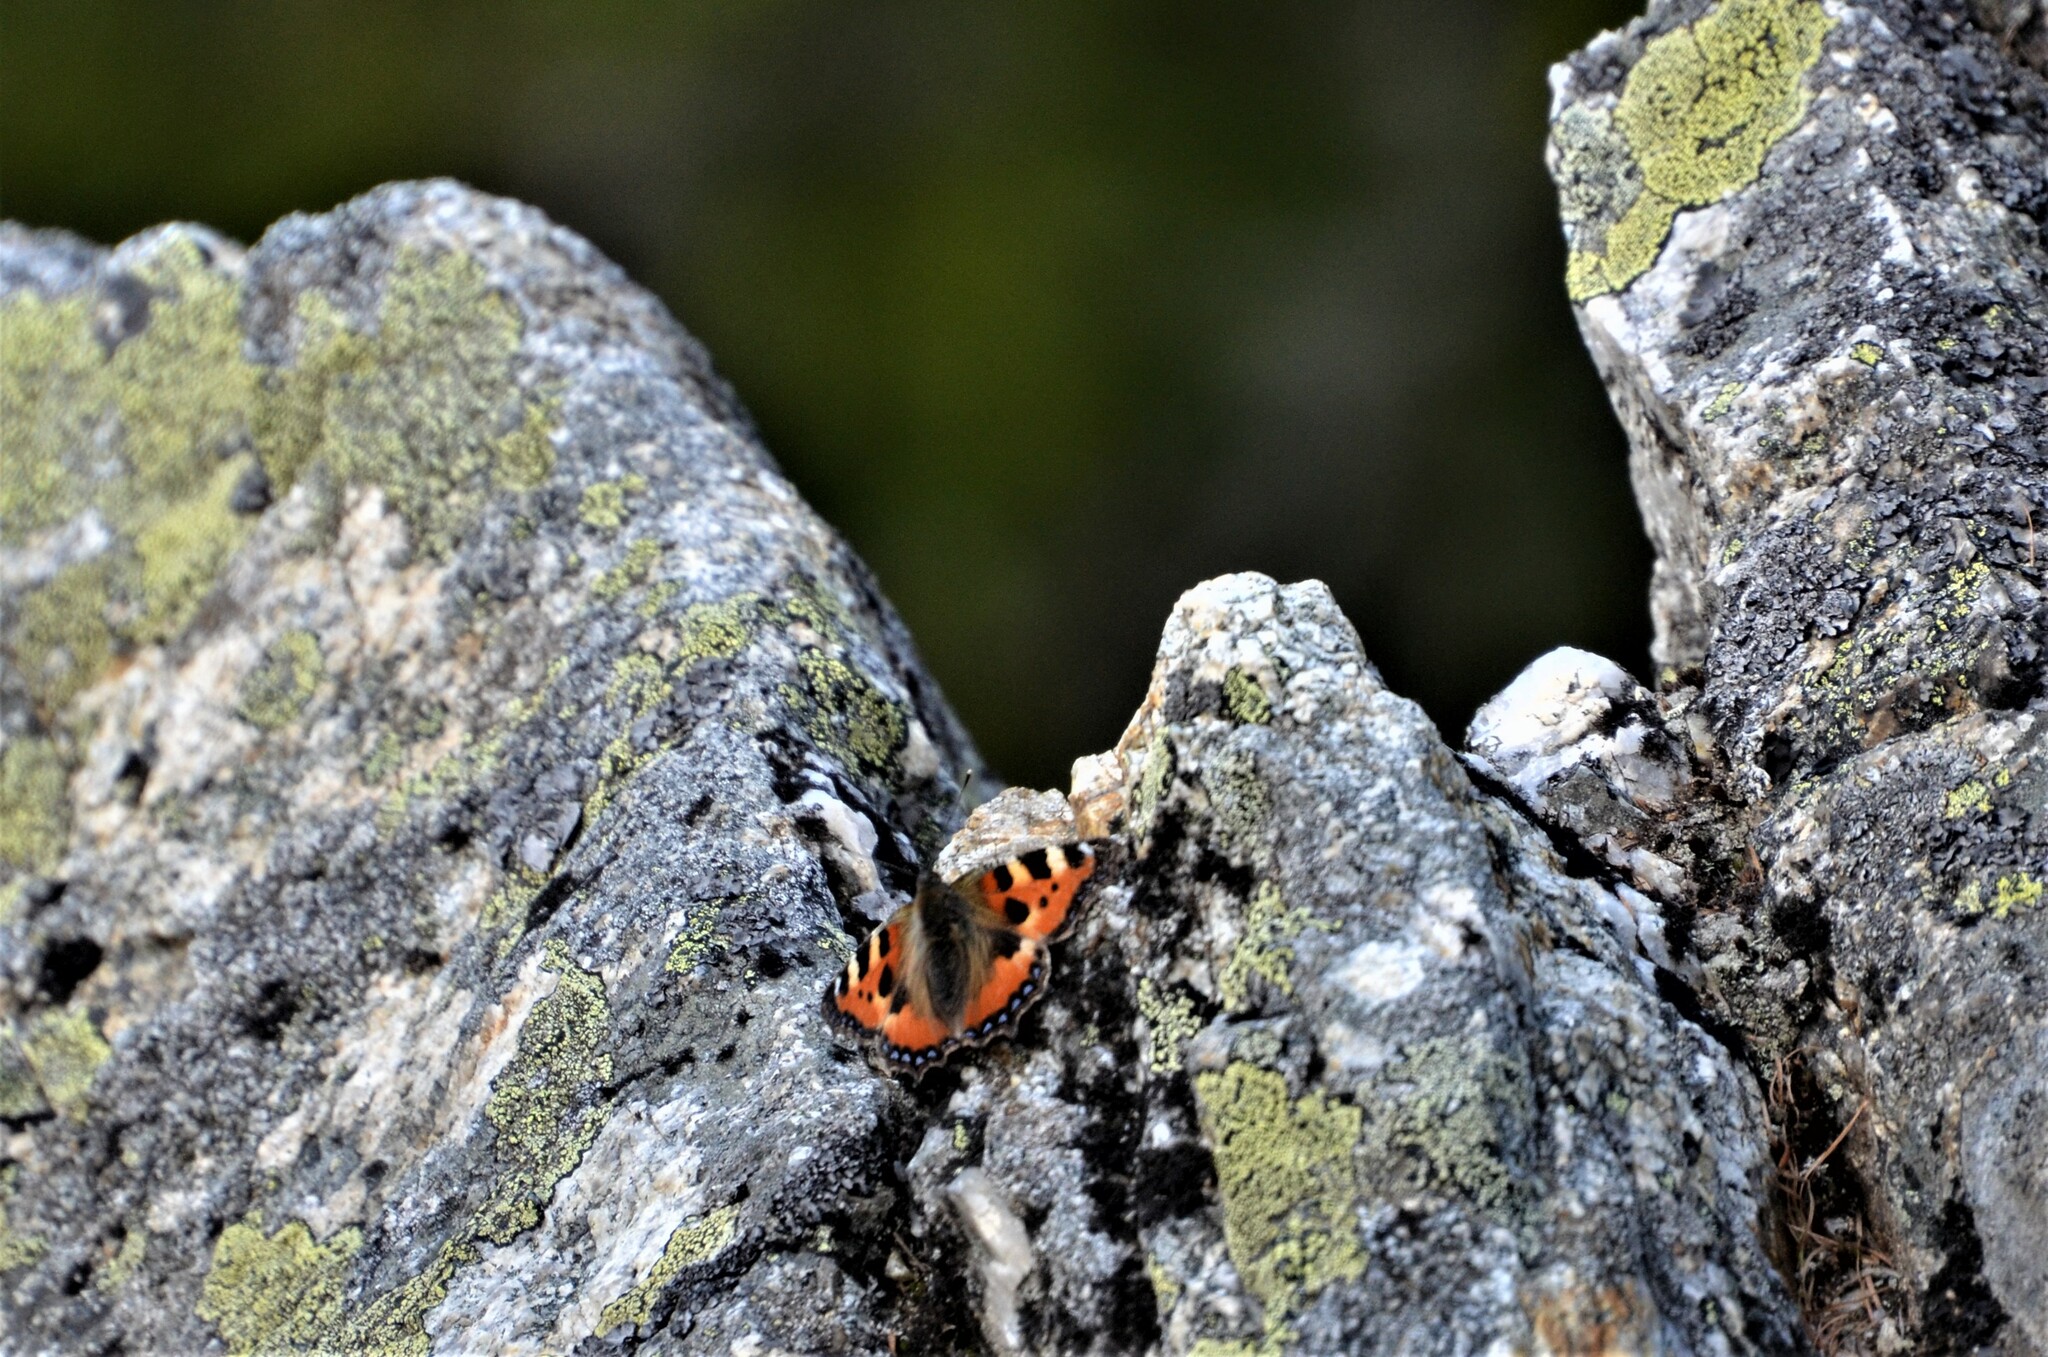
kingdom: Animalia
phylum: Arthropoda
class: Insecta
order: Lepidoptera
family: Nymphalidae
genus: Aglais
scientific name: Aglais urticae
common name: Small tortoiseshell
